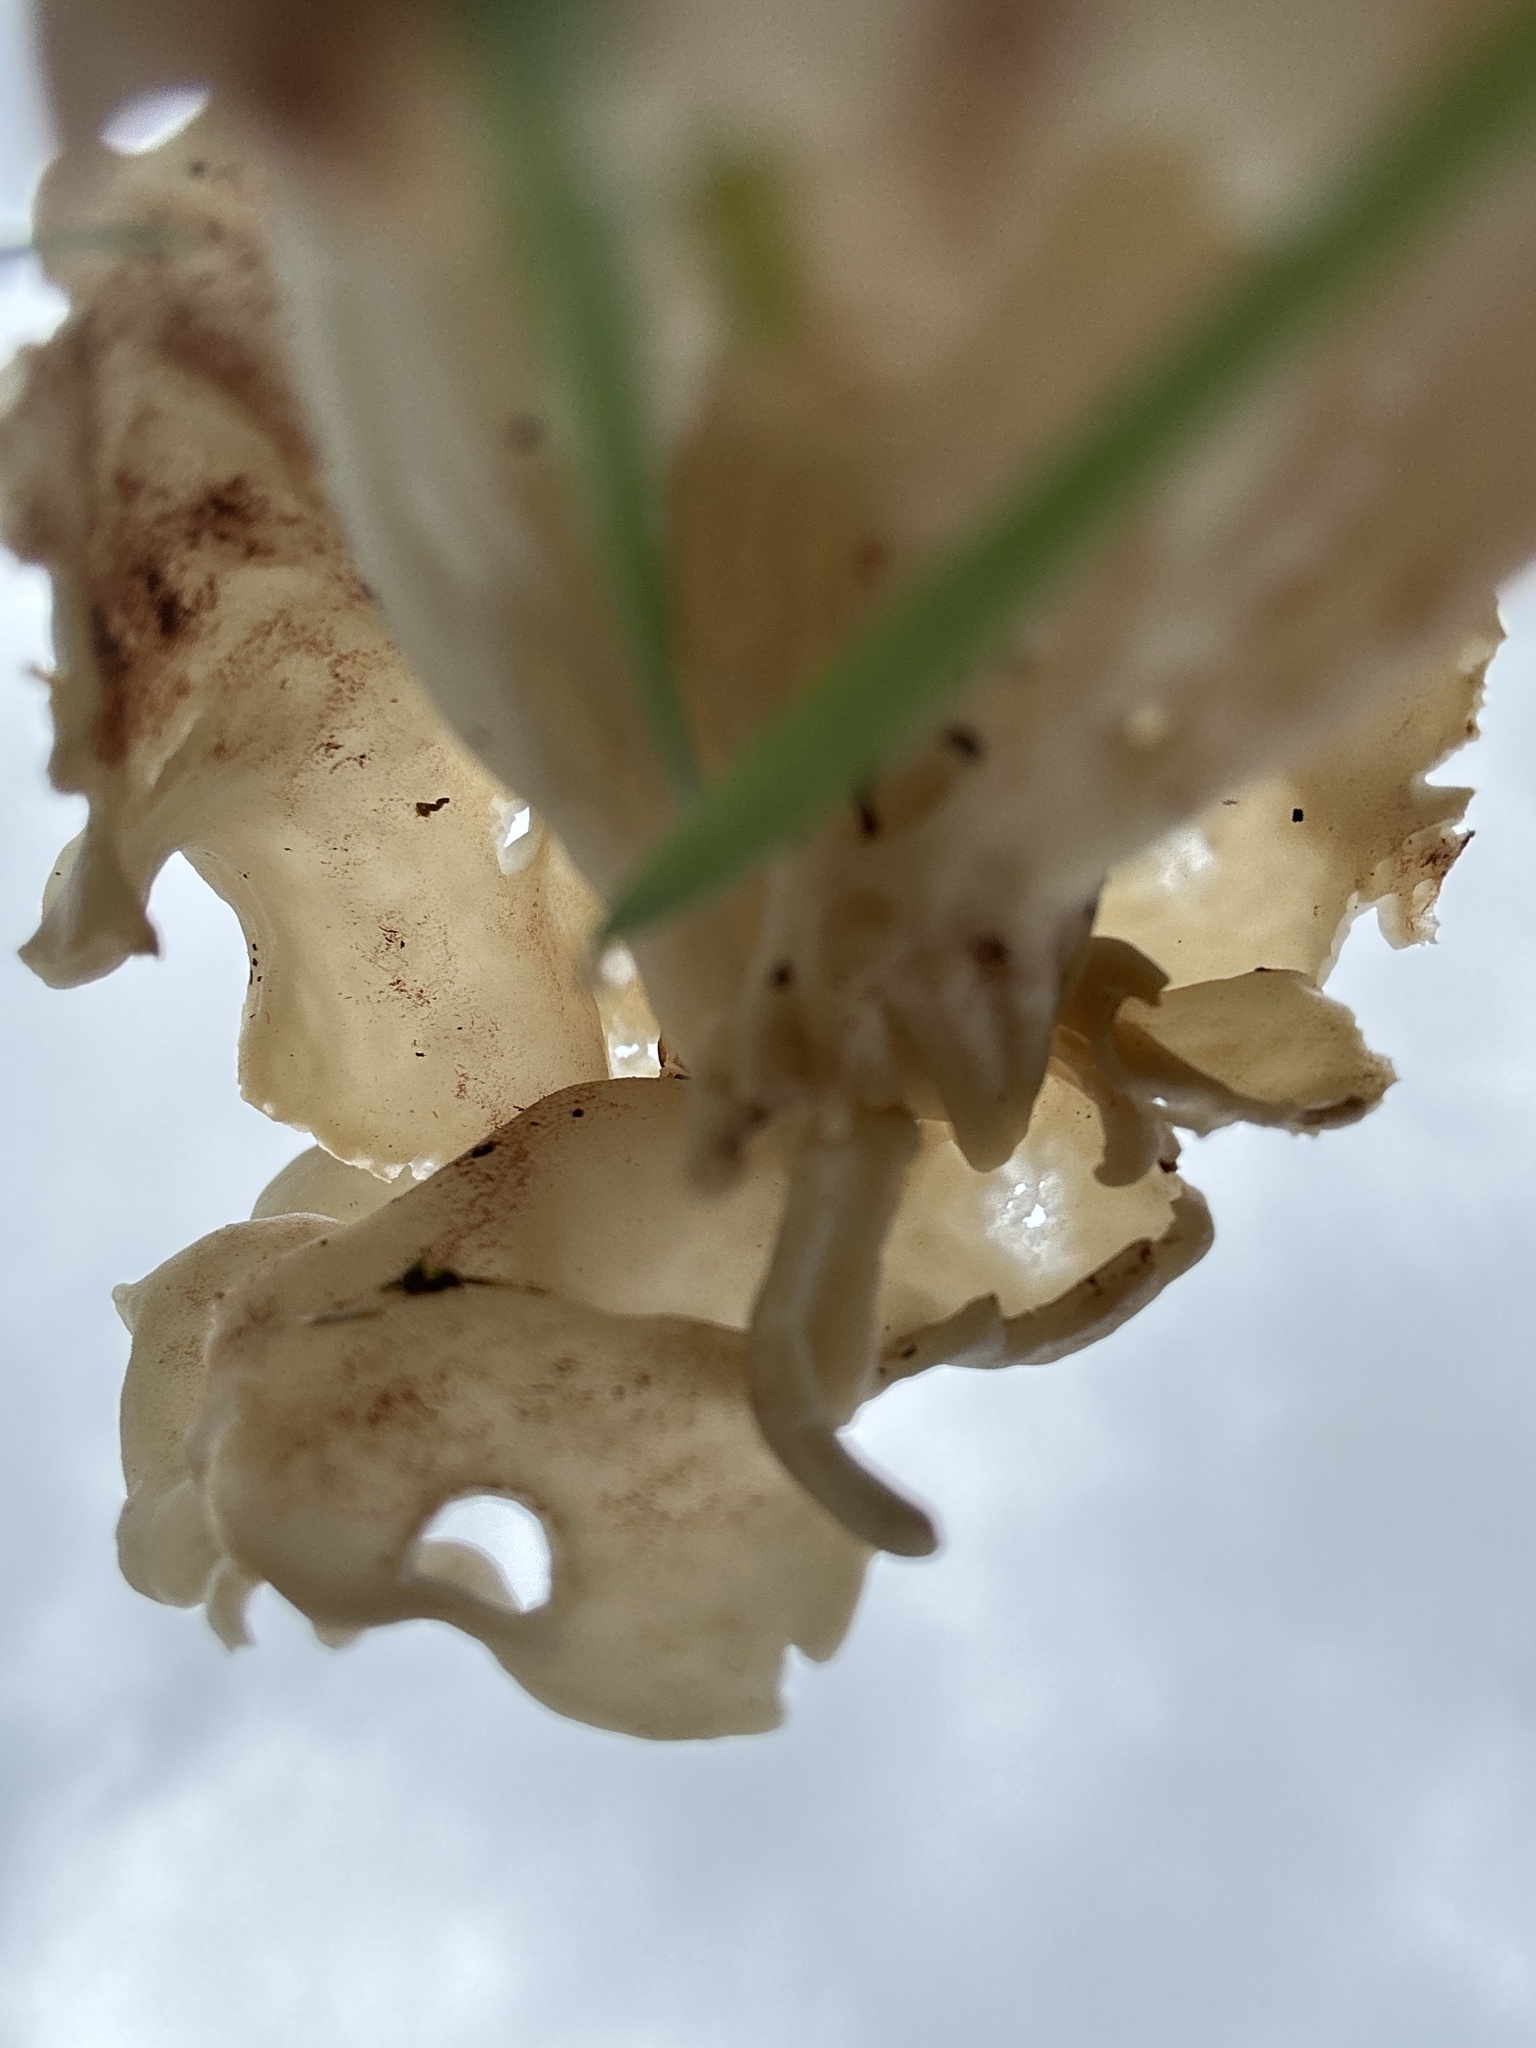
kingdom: Fungi
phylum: Ascomycota
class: Pezizomycetes
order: Pezizales
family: Helvellaceae
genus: Helvella
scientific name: Helvella crispa
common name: White saddle
